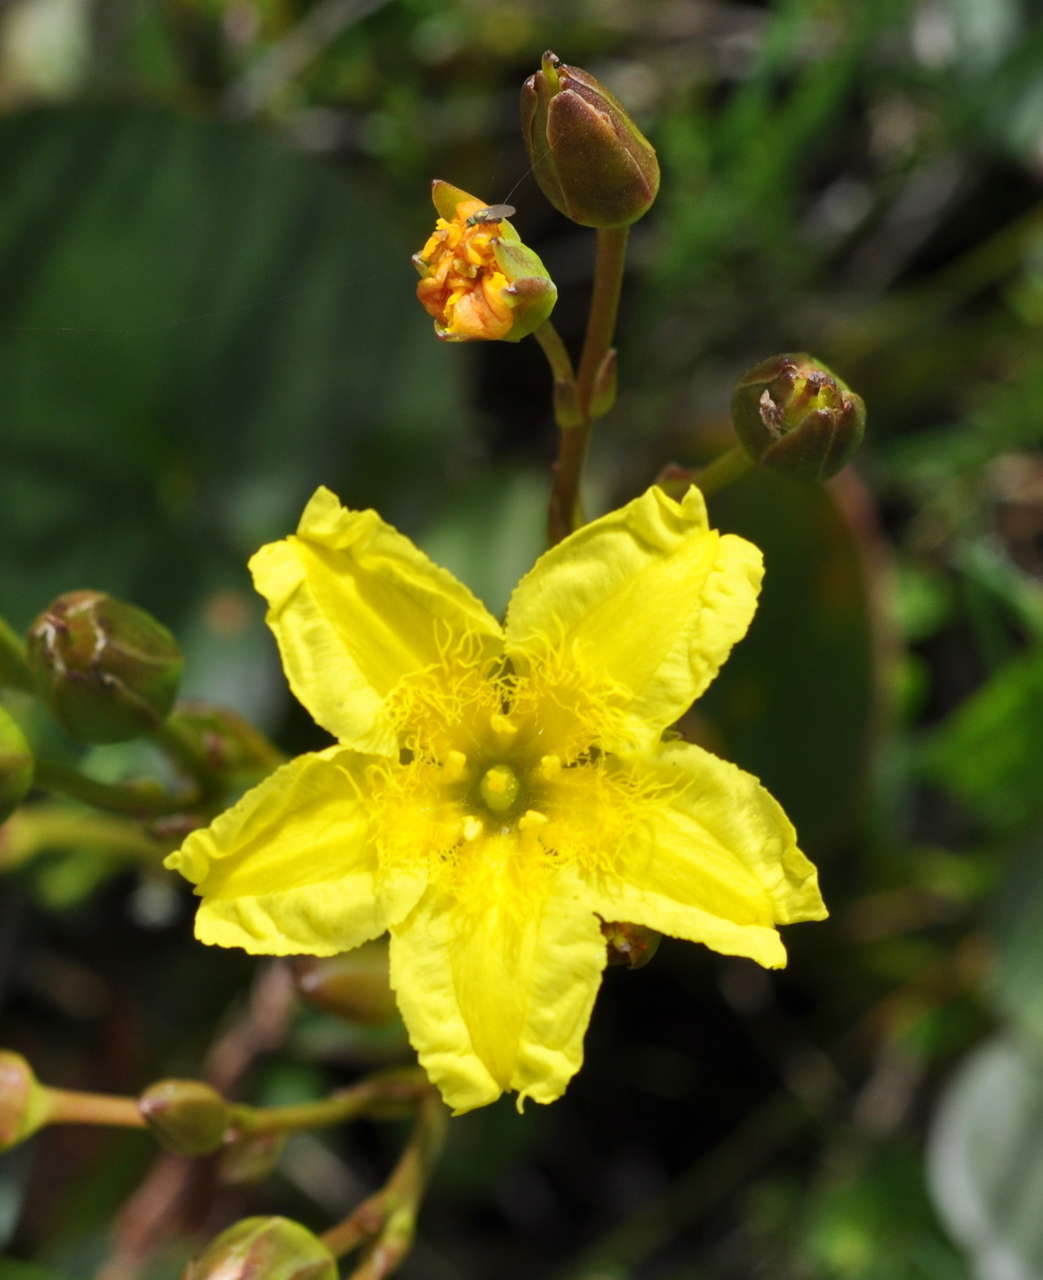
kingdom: Plantae
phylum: Tracheophyta
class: Magnoliopsida
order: Asterales
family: Menyanthaceae
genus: Ornduffia
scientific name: Ornduffia reniformis
